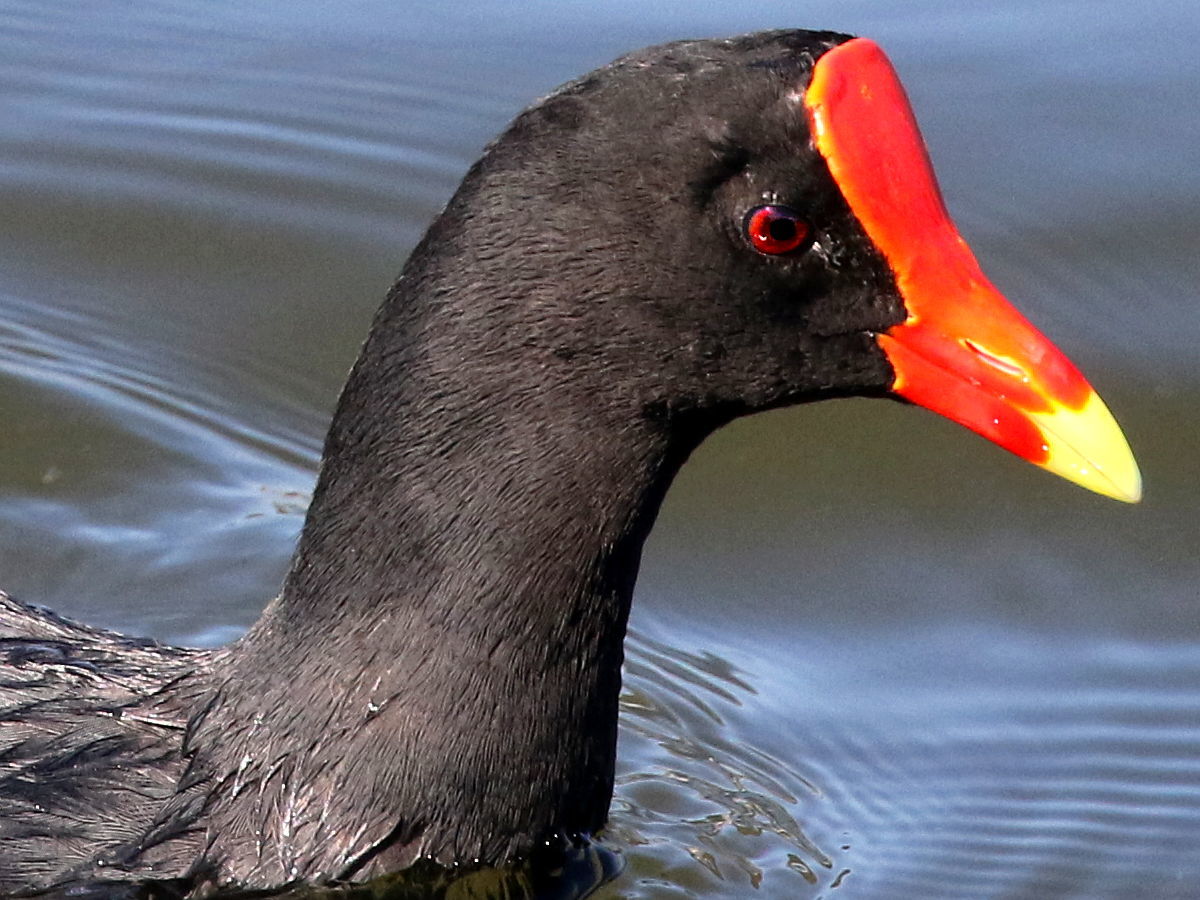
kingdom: Animalia
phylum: Chordata
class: Aves
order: Gruiformes
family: Rallidae
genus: Gallinula
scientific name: Gallinula chloropus
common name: Common moorhen
